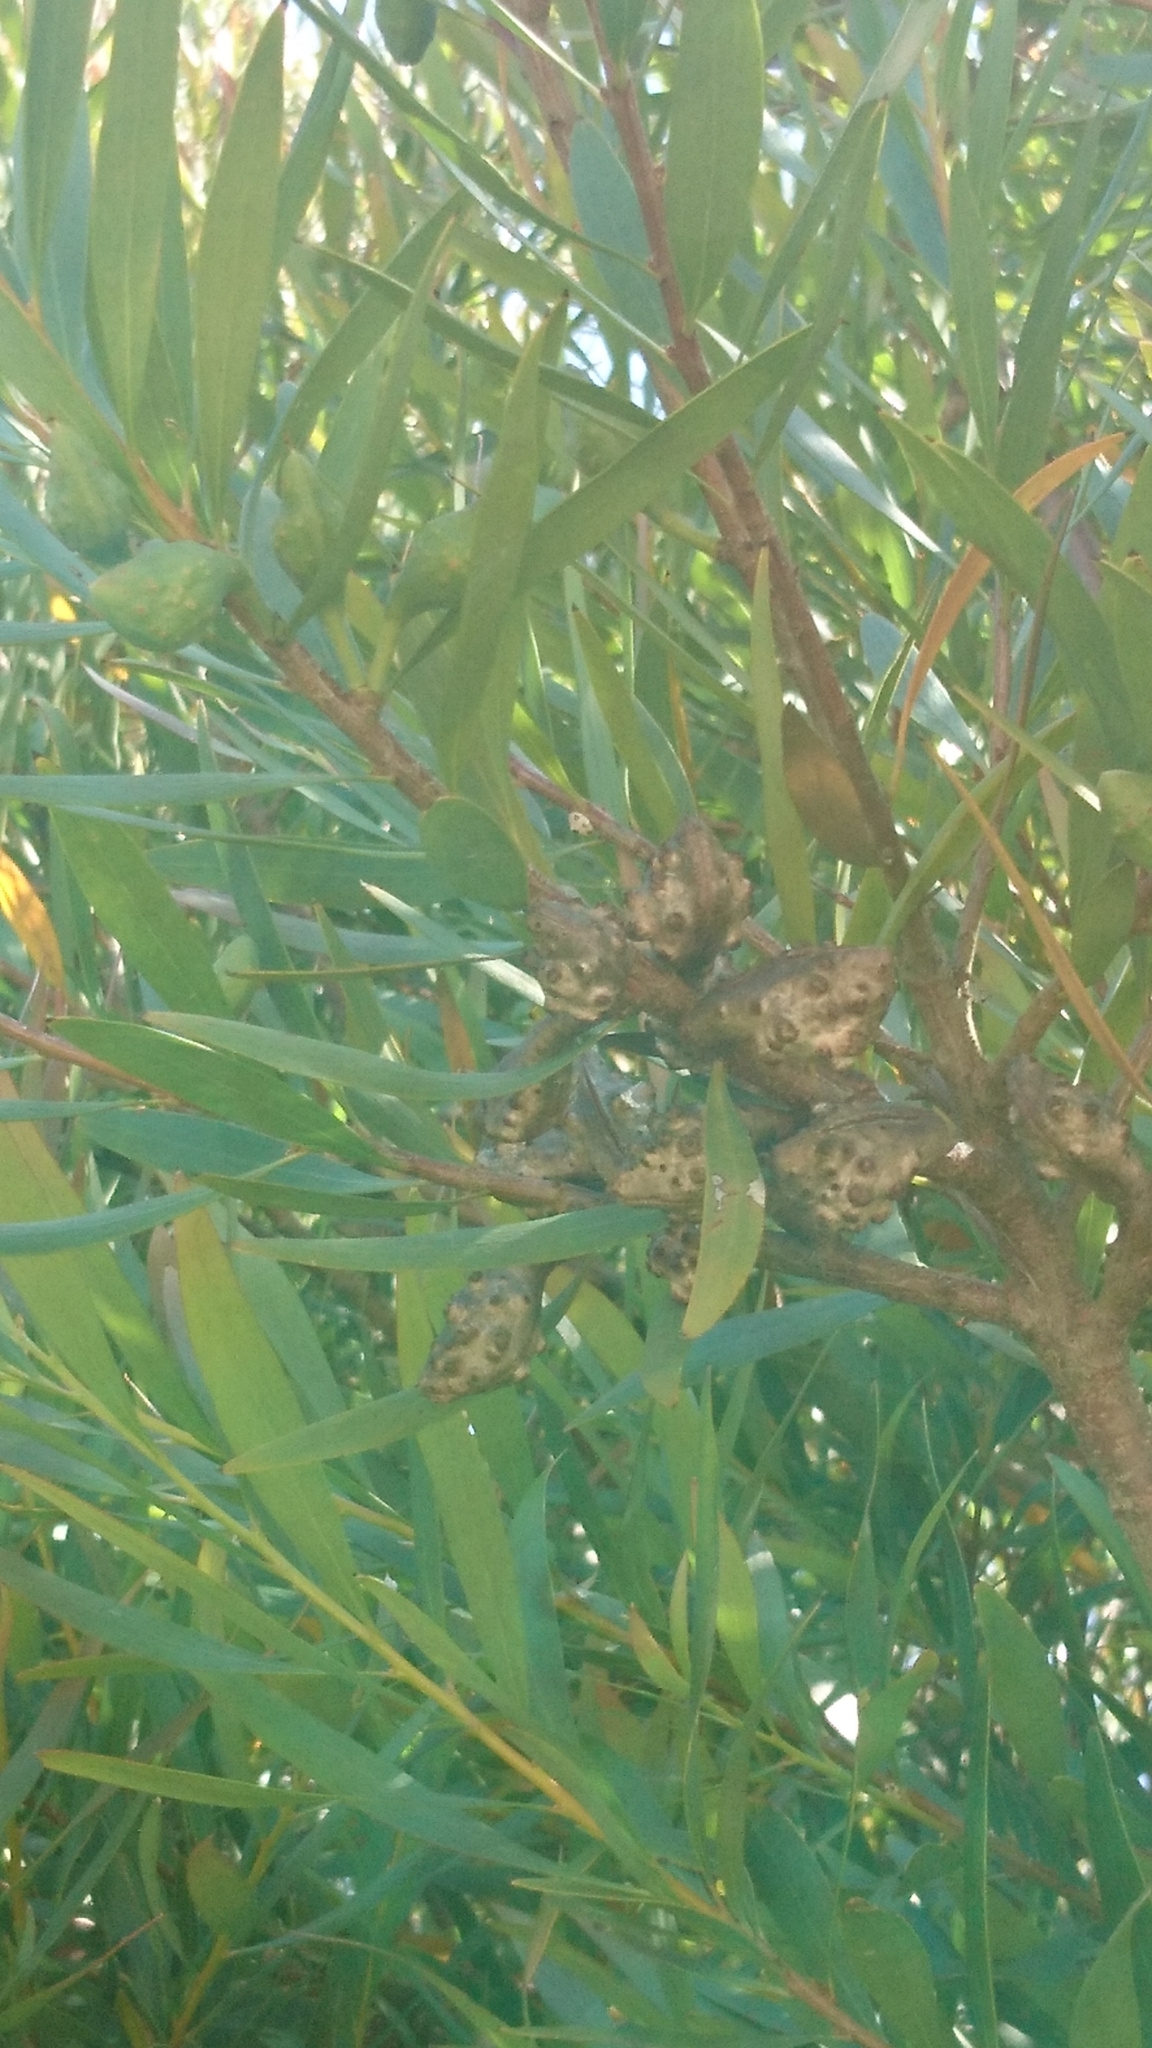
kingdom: Plantae
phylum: Tracheophyta
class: Magnoliopsida
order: Proteales
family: Proteaceae
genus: Hakea
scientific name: Hakea salicifolia
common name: Willow hakea
